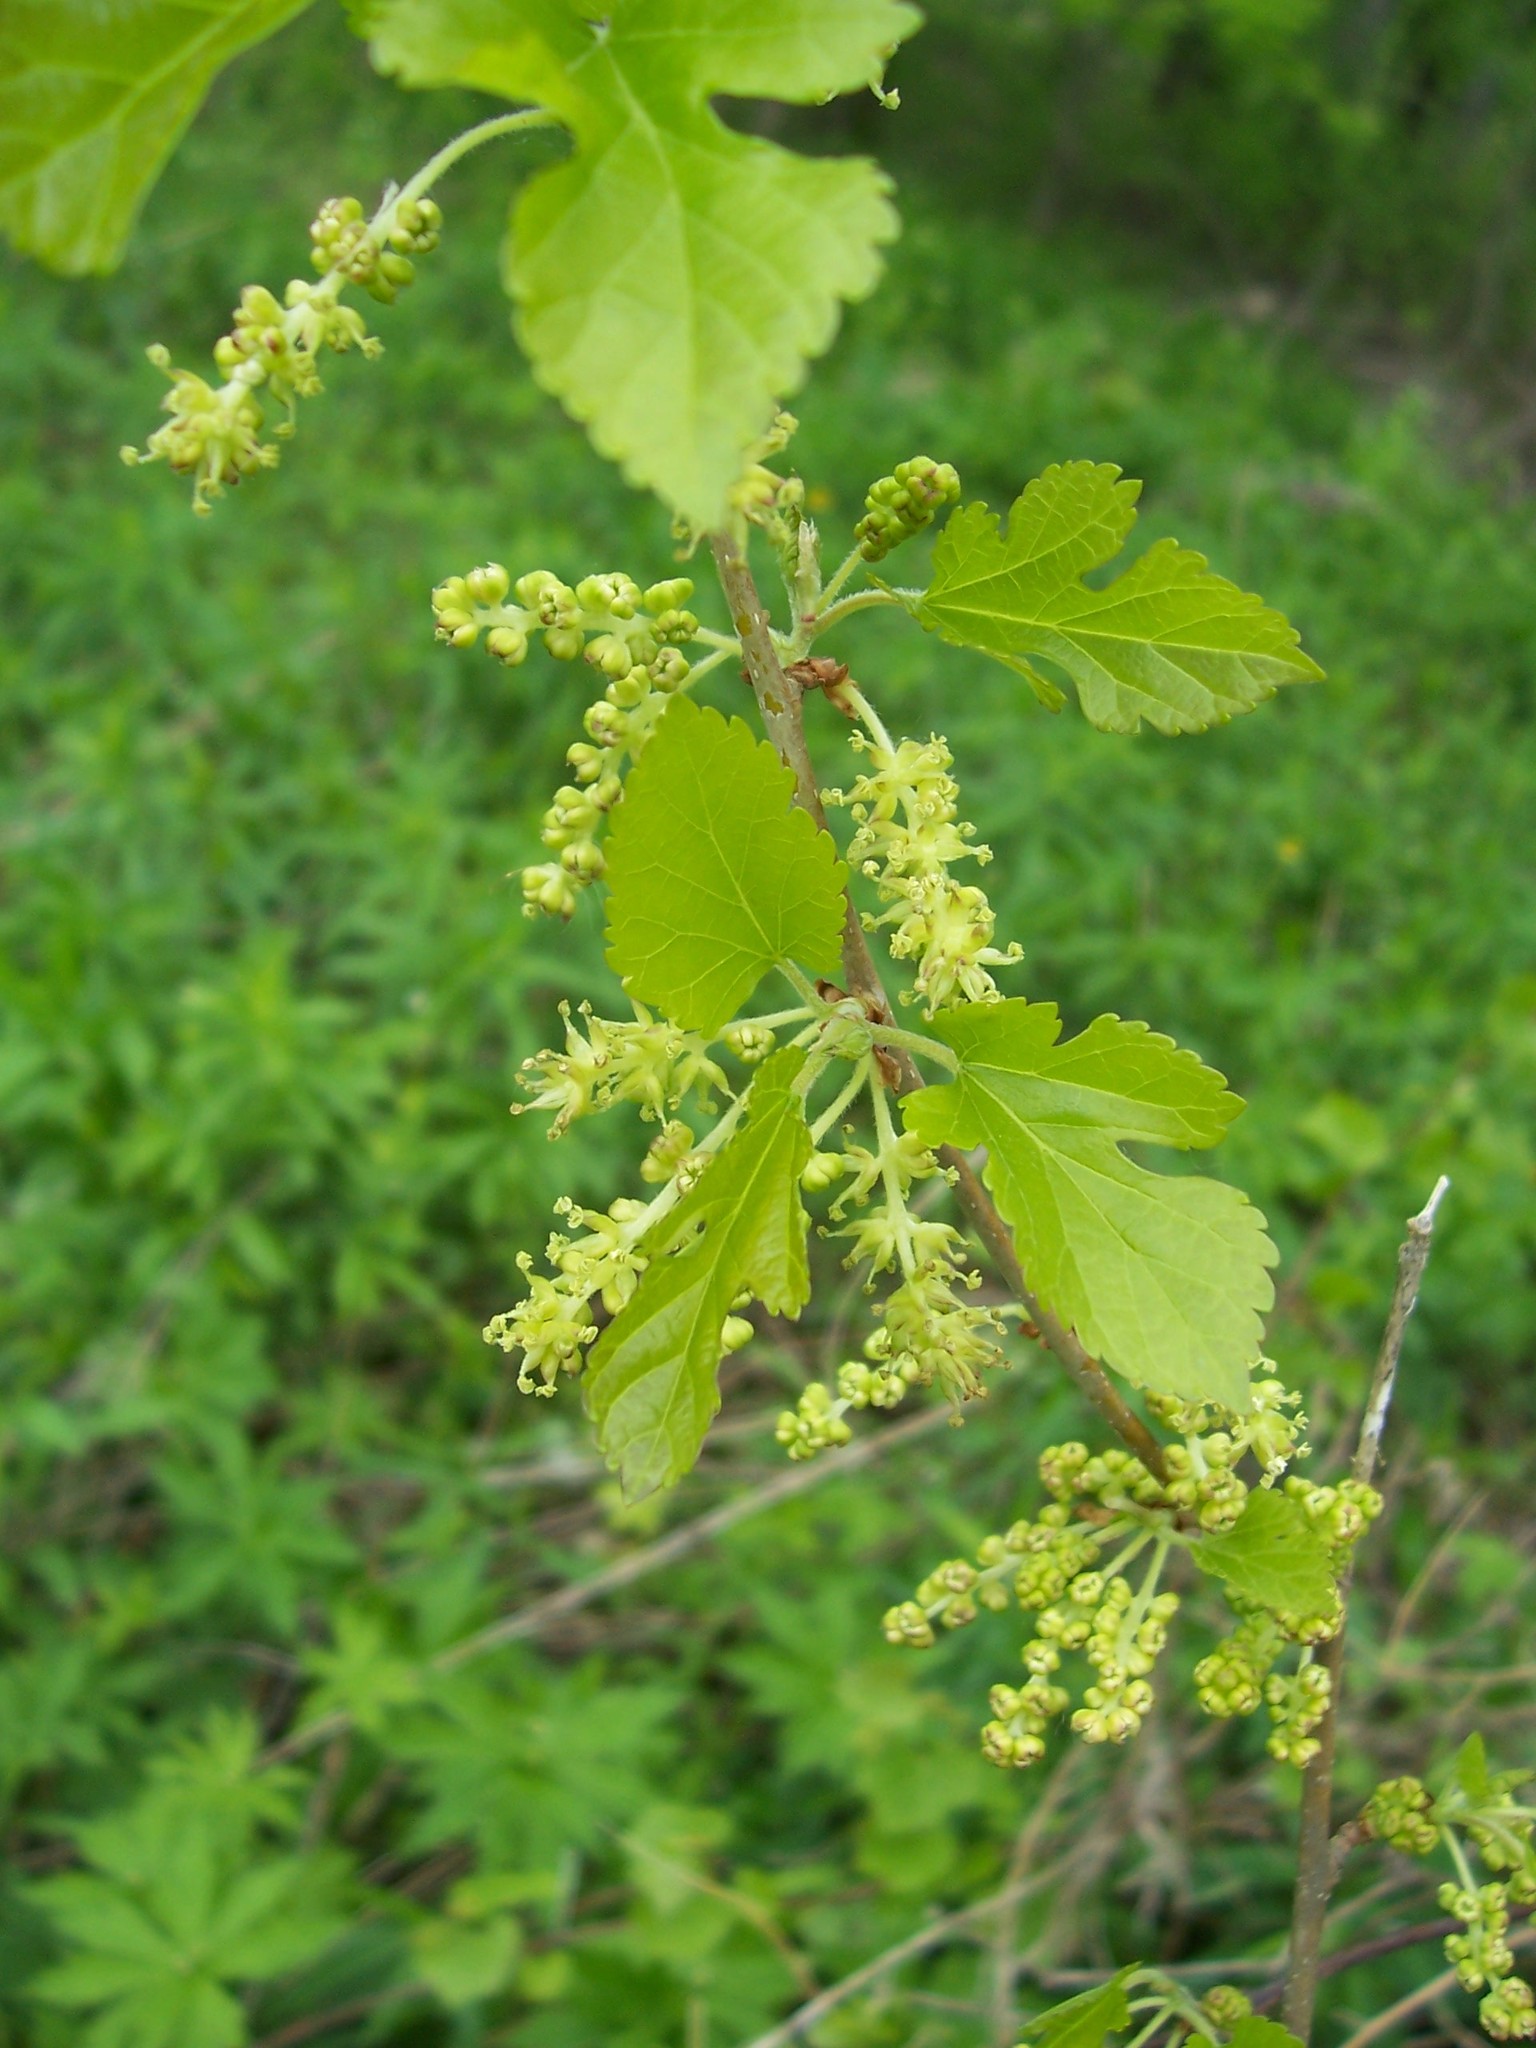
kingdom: Plantae
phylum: Tracheophyta
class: Magnoliopsida
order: Rosales
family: Moraceae
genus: Morus
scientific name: Morus alba
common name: White mulberry
